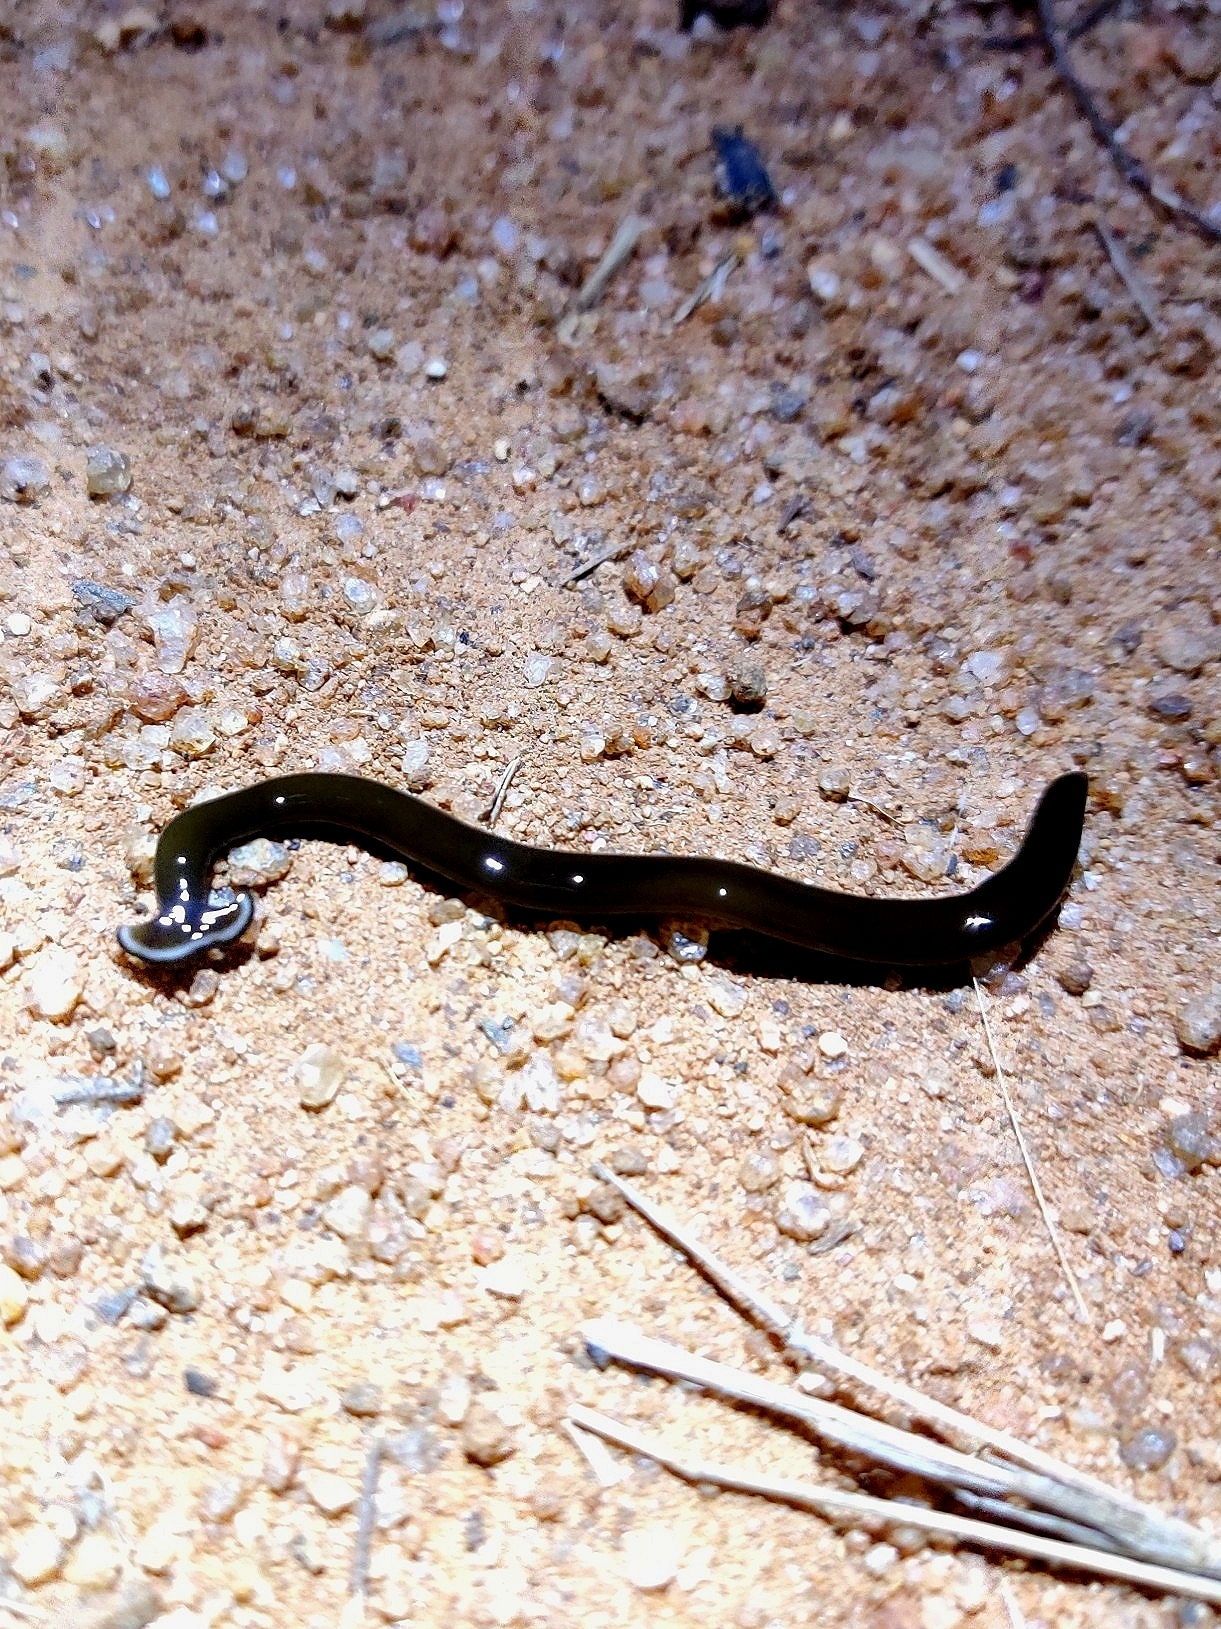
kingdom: Animalia
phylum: Platyhelminthes
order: Tricladida
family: Geoplanidae
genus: Bipalium
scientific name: Bipalium univittatum
